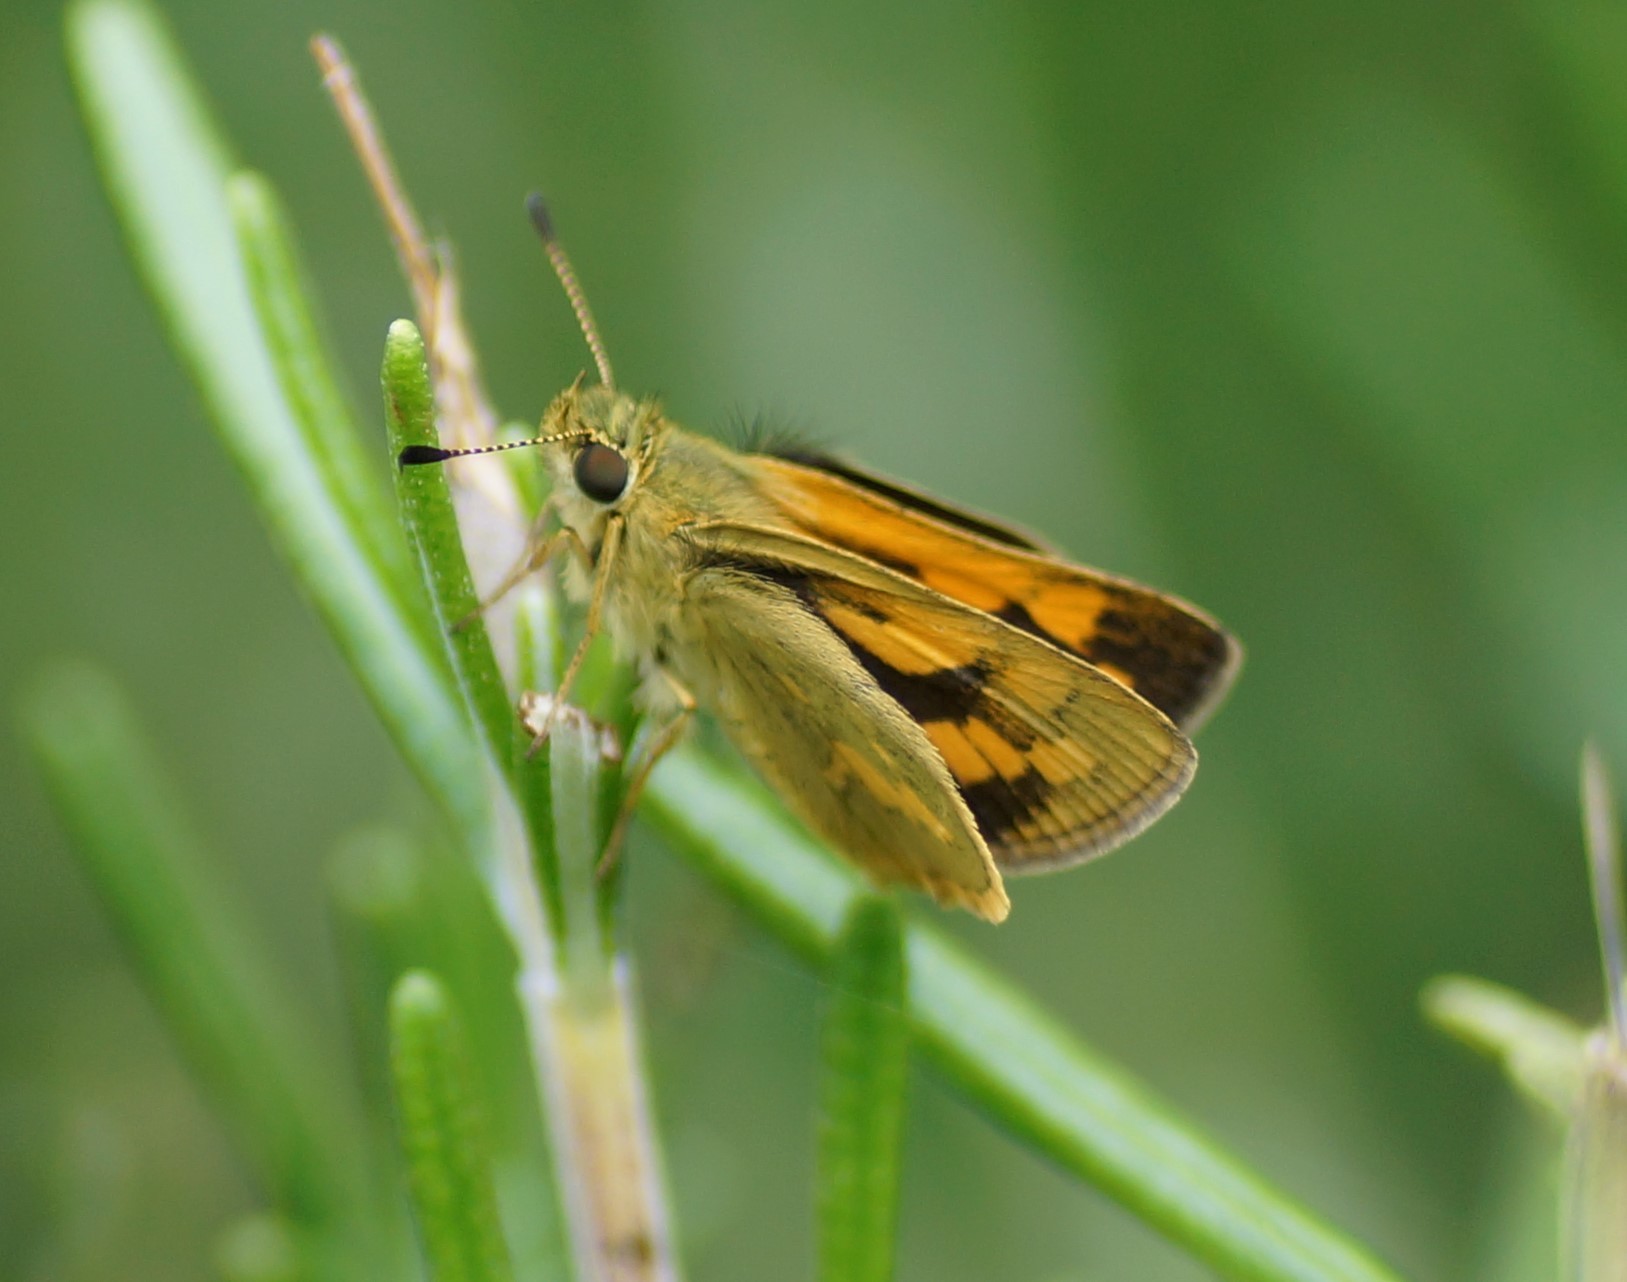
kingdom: Animalia
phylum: Arthropoda
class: Insecta
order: Lepidoptera
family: Hesperiidae
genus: Ocybadistes
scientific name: Ocybadistes walkeri
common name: Yellow-banded dart
